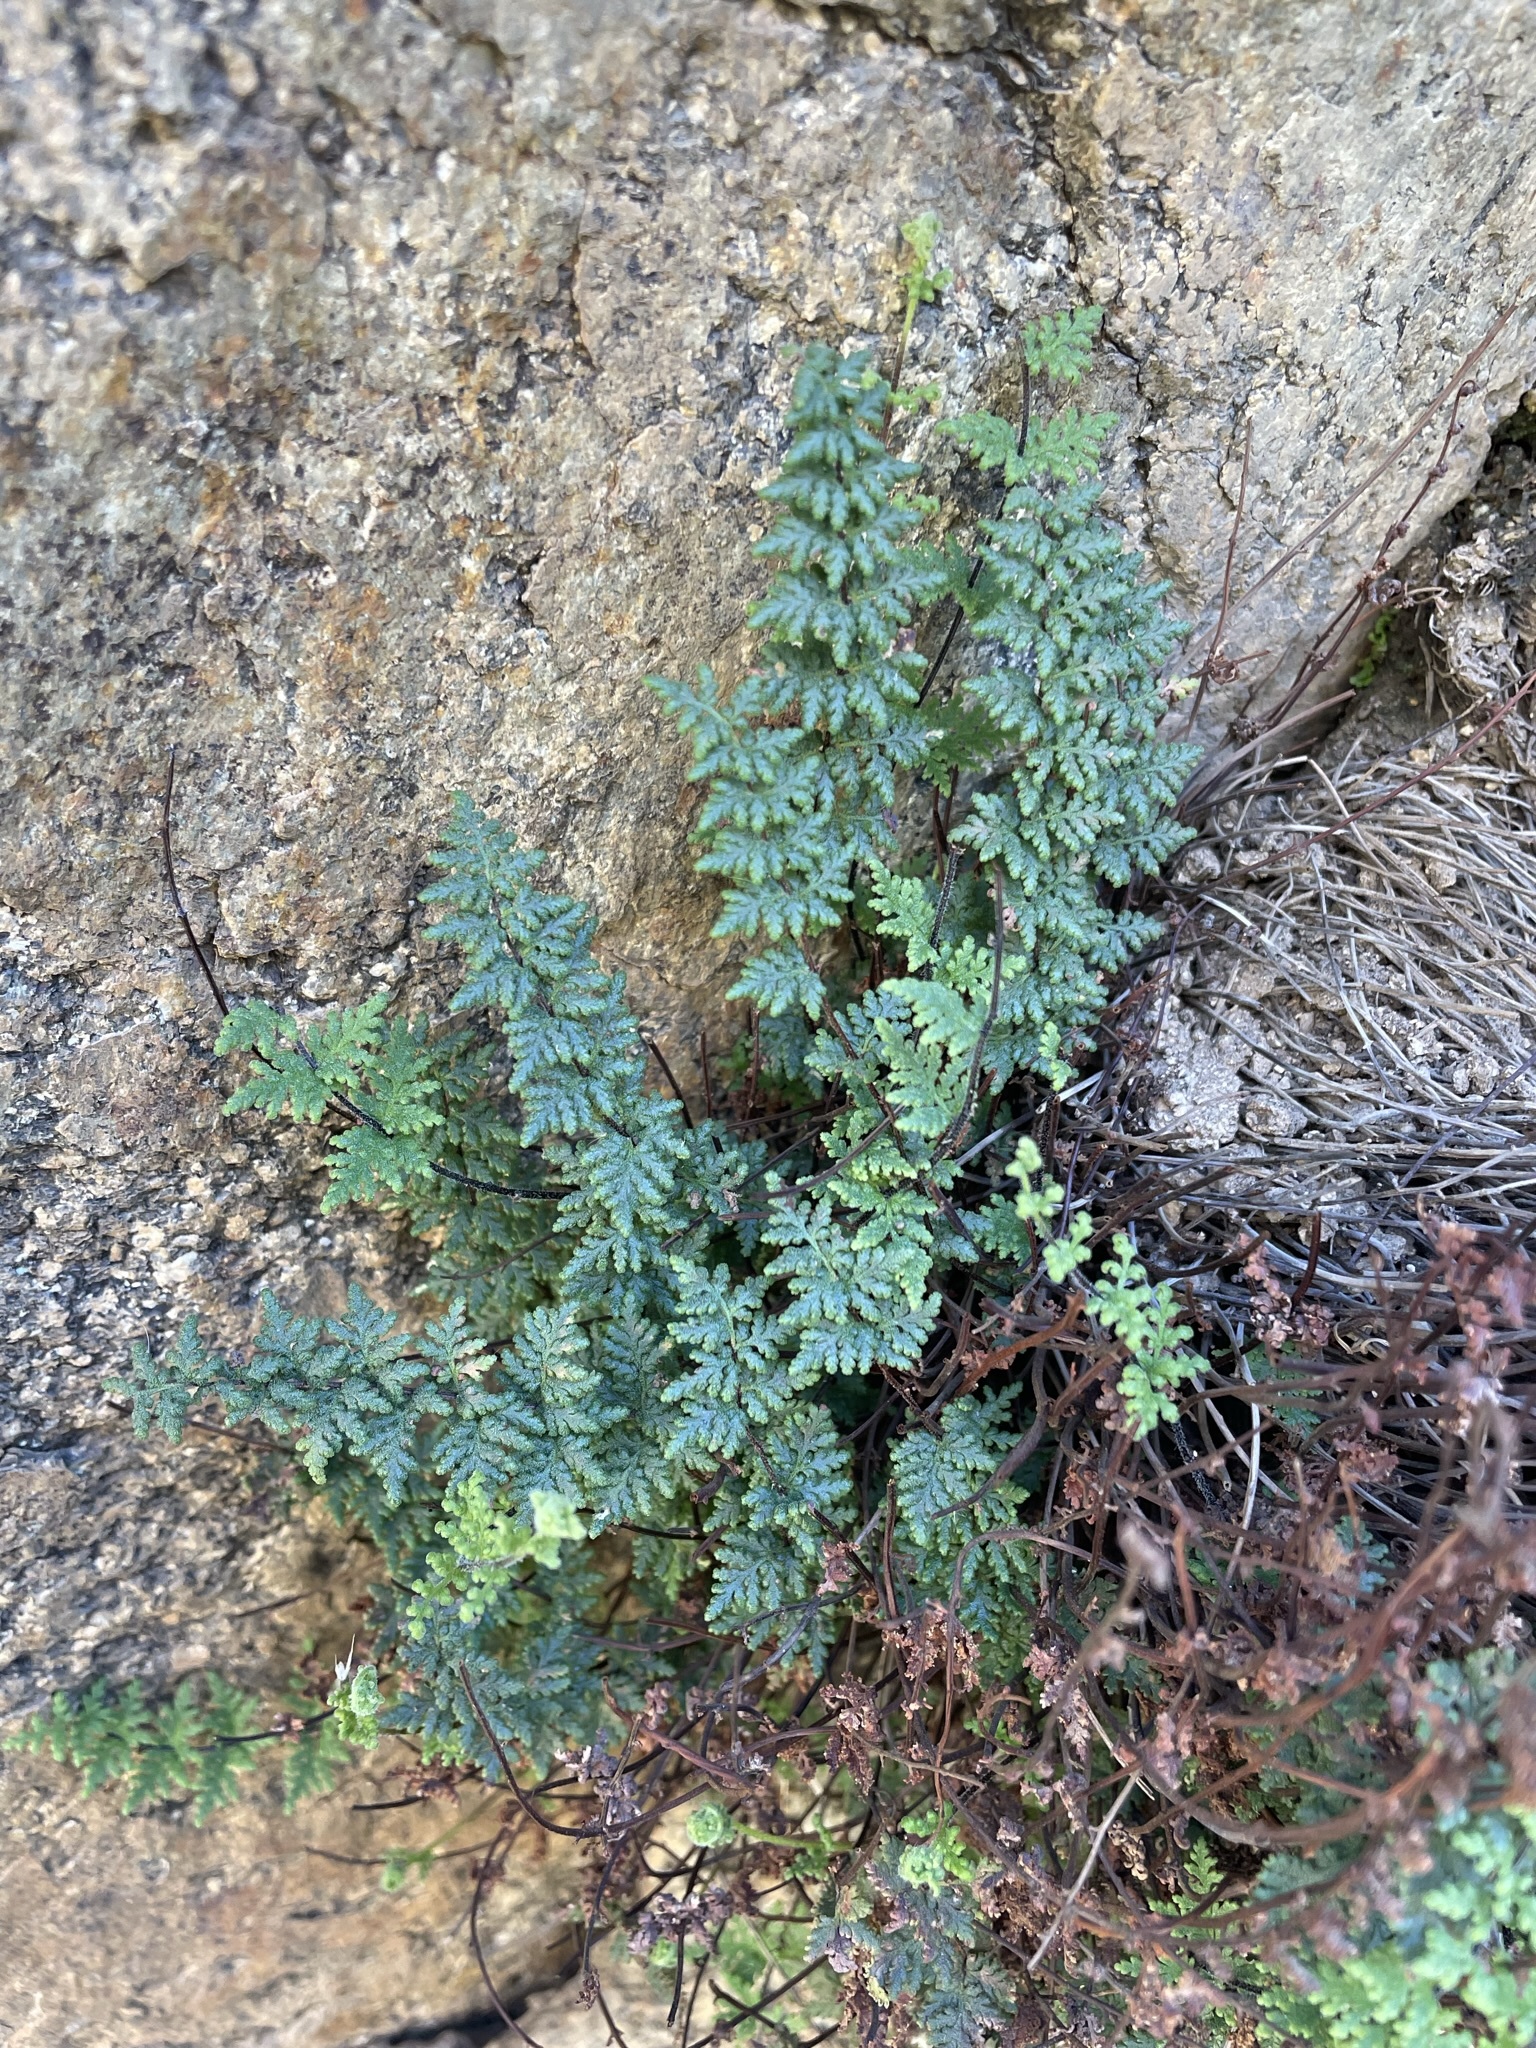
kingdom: Plantae
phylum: Tracheophyta
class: Polypodiopsida
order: Polypodiales
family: Pteridaceae
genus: Myriopteris
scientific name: Myriopteris viscida
